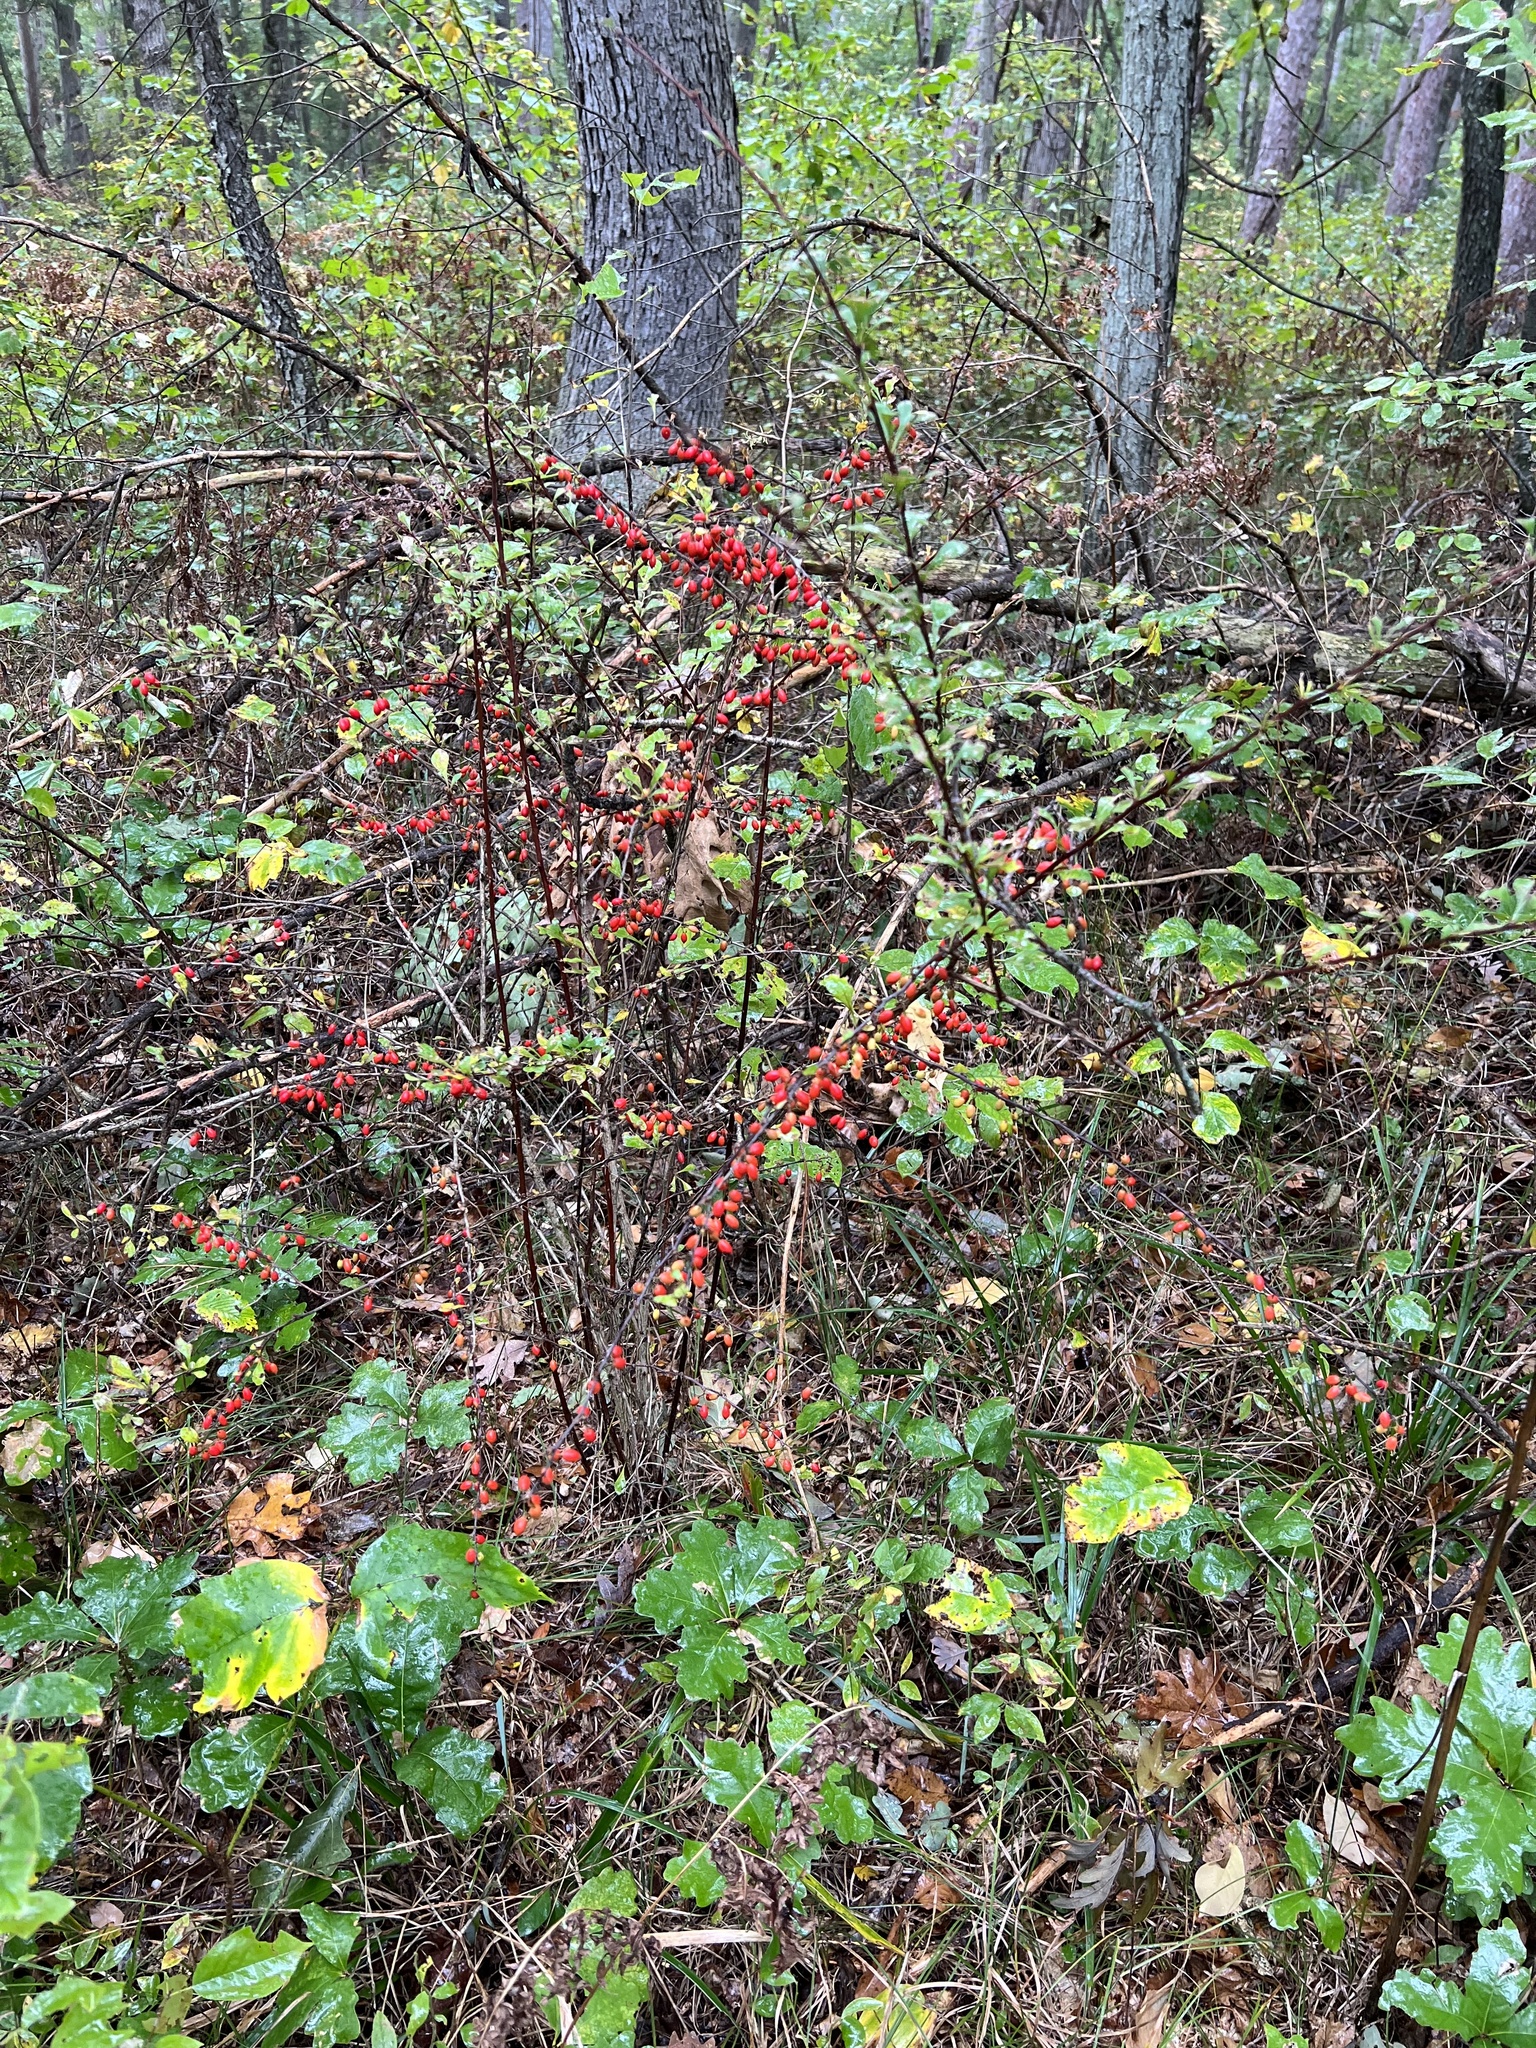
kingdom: Plantae
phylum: Tracheophyta
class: Magnoliopsida
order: Ranunculales
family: Berberidaceae
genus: Berberis
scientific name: Berberis thunbergii
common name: Japanese barberry
